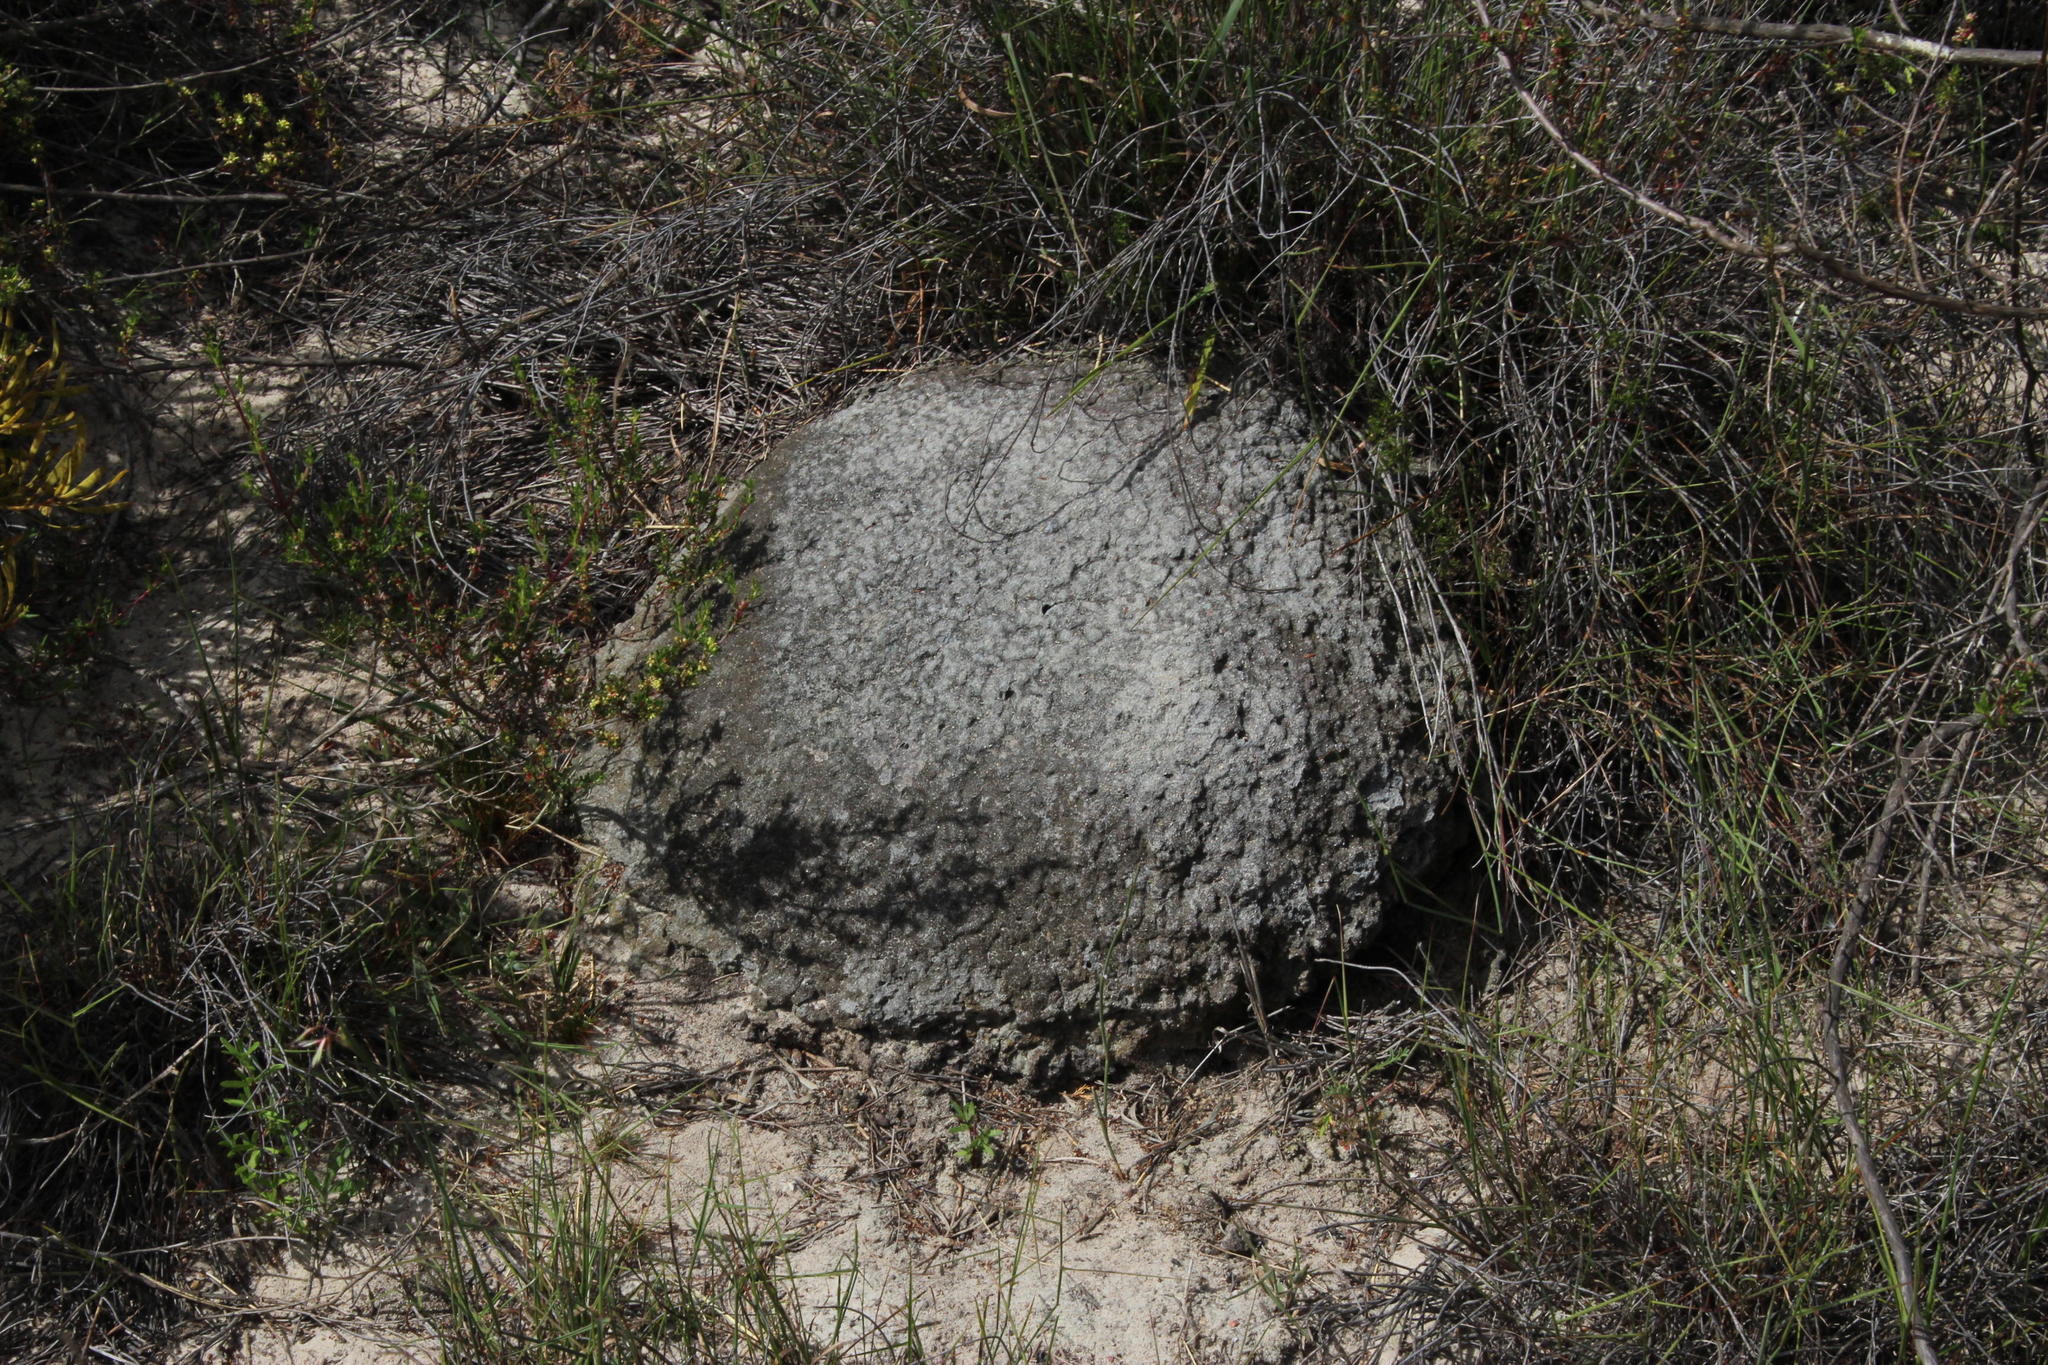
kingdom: Animalia
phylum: Arthropoda
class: Insecta
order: Blattodea
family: Termitidae
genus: Amitermes
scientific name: Amitermes hastatus
